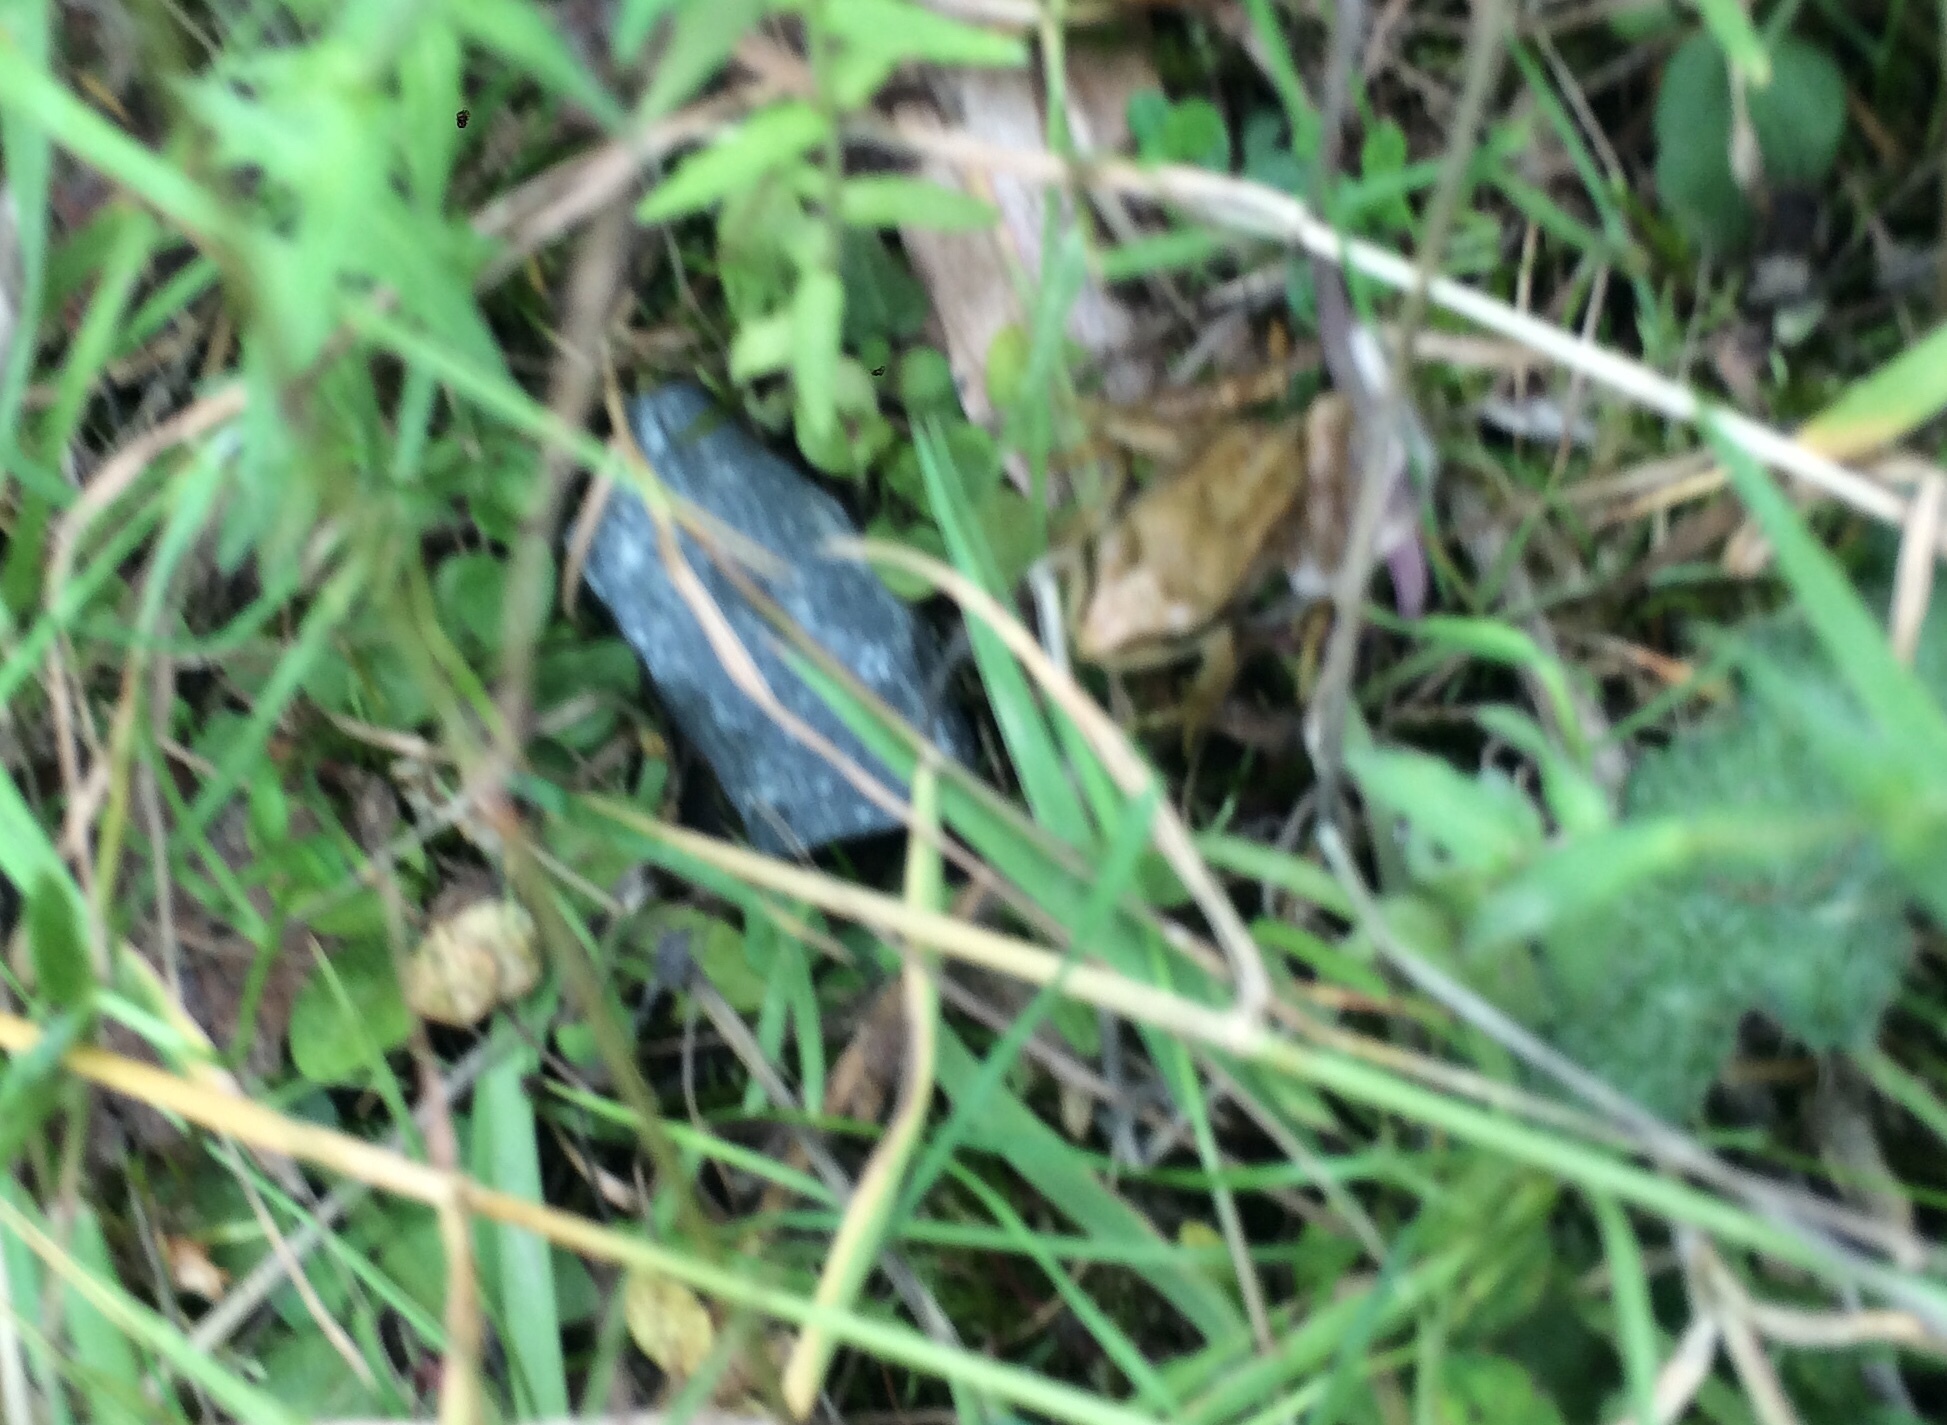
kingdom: Animalia
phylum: Chordata
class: Amphibia
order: Anura
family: Ranidae
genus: Rana
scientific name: Rana temporaria
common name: Common frog
